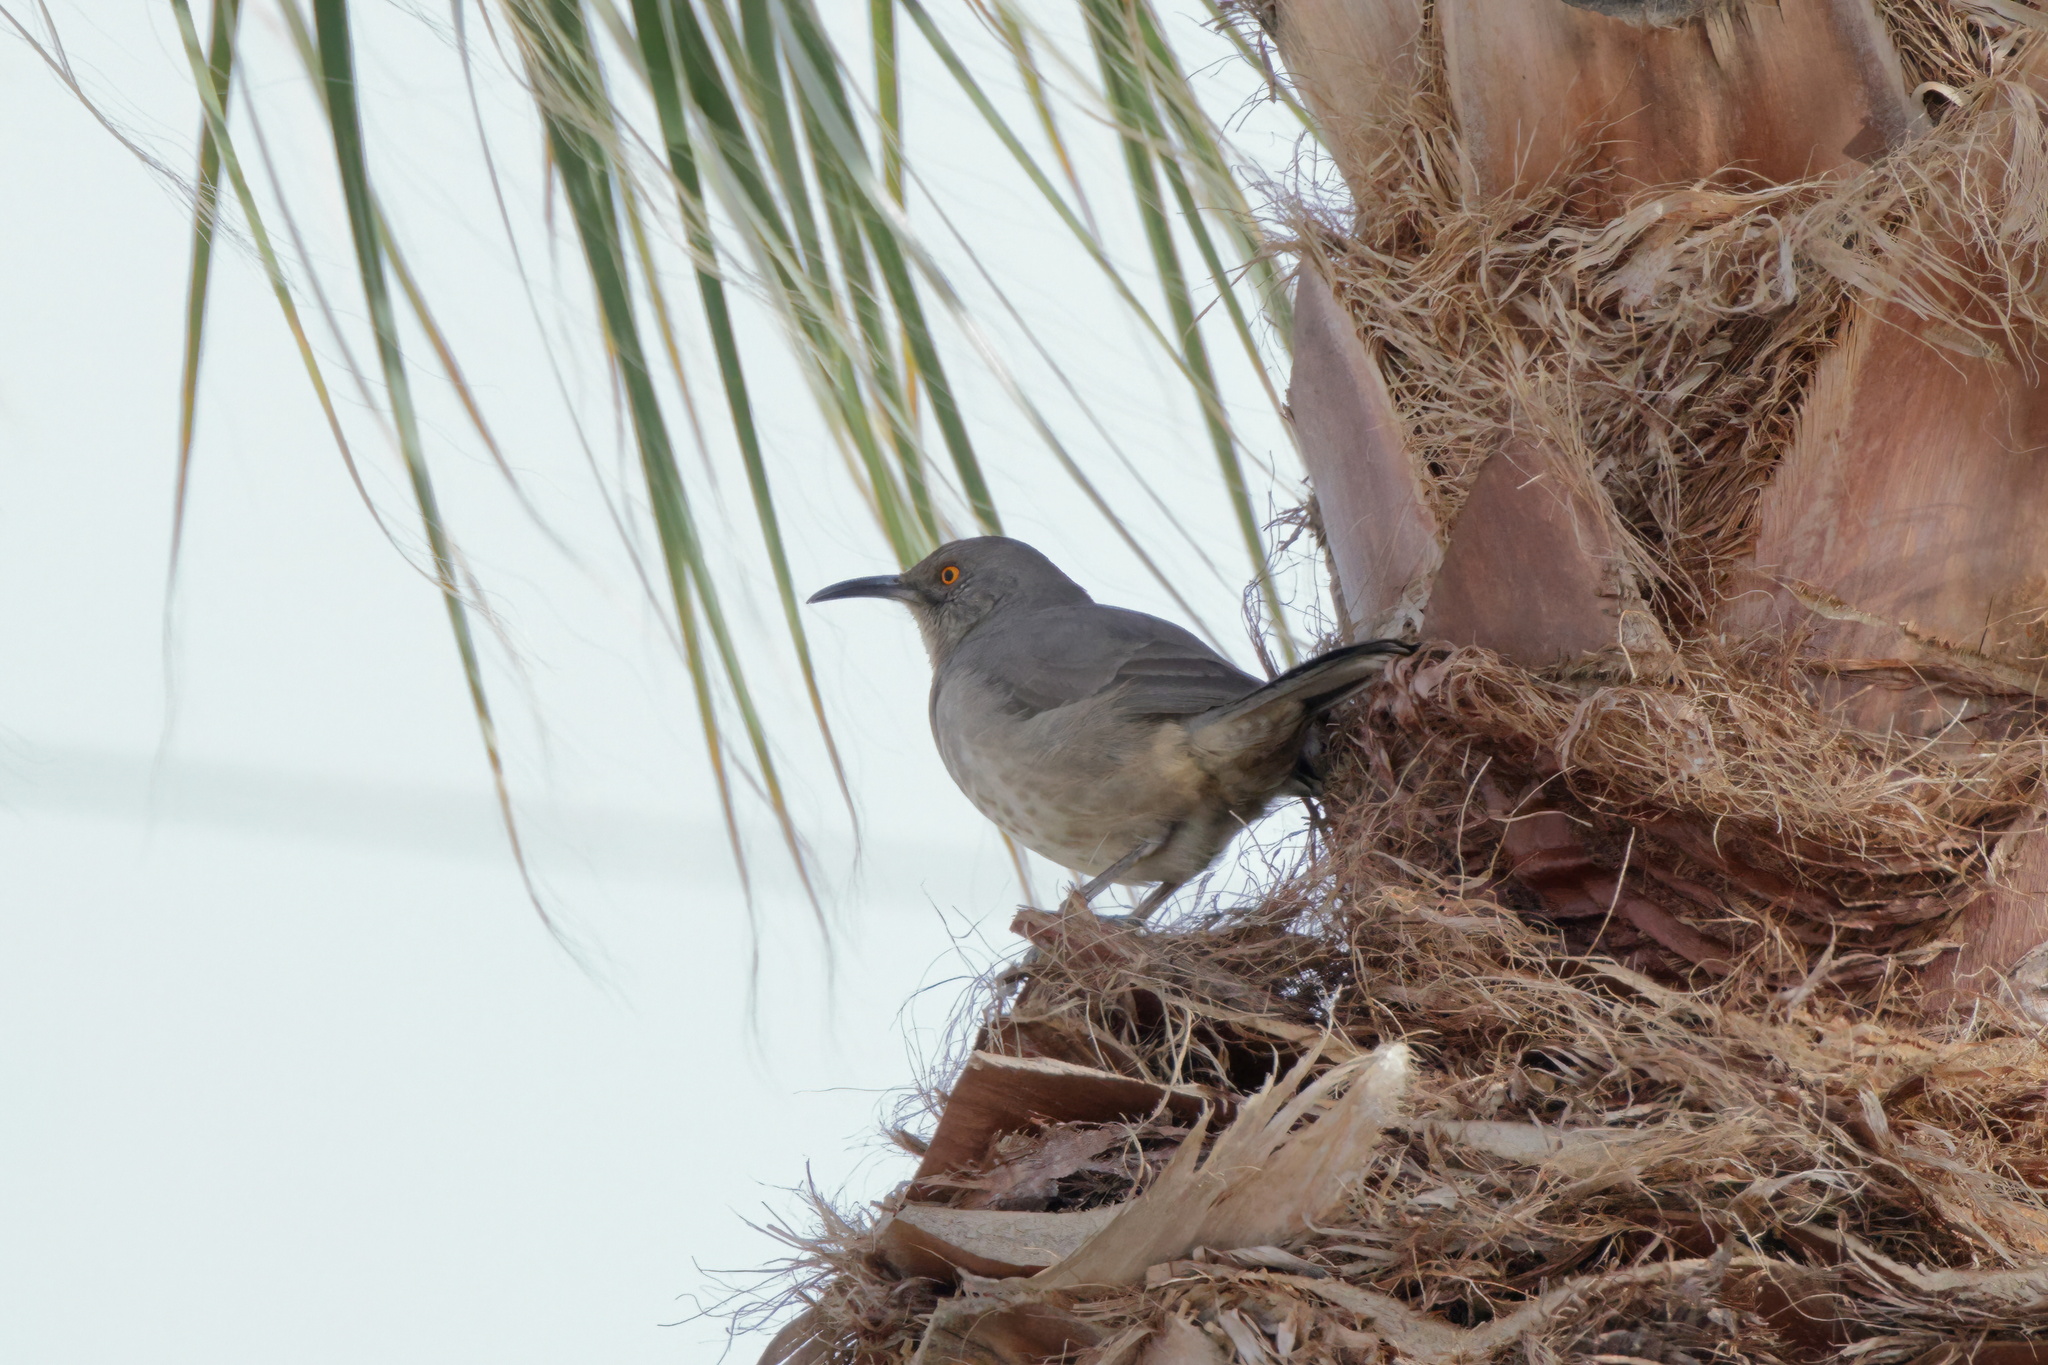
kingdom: Animalia
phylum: Chordata
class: Aves
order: Passeriformes
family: Mimidae
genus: Toxostoma
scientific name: Toxostoma curvirostre
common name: Curve-billed thrasher
